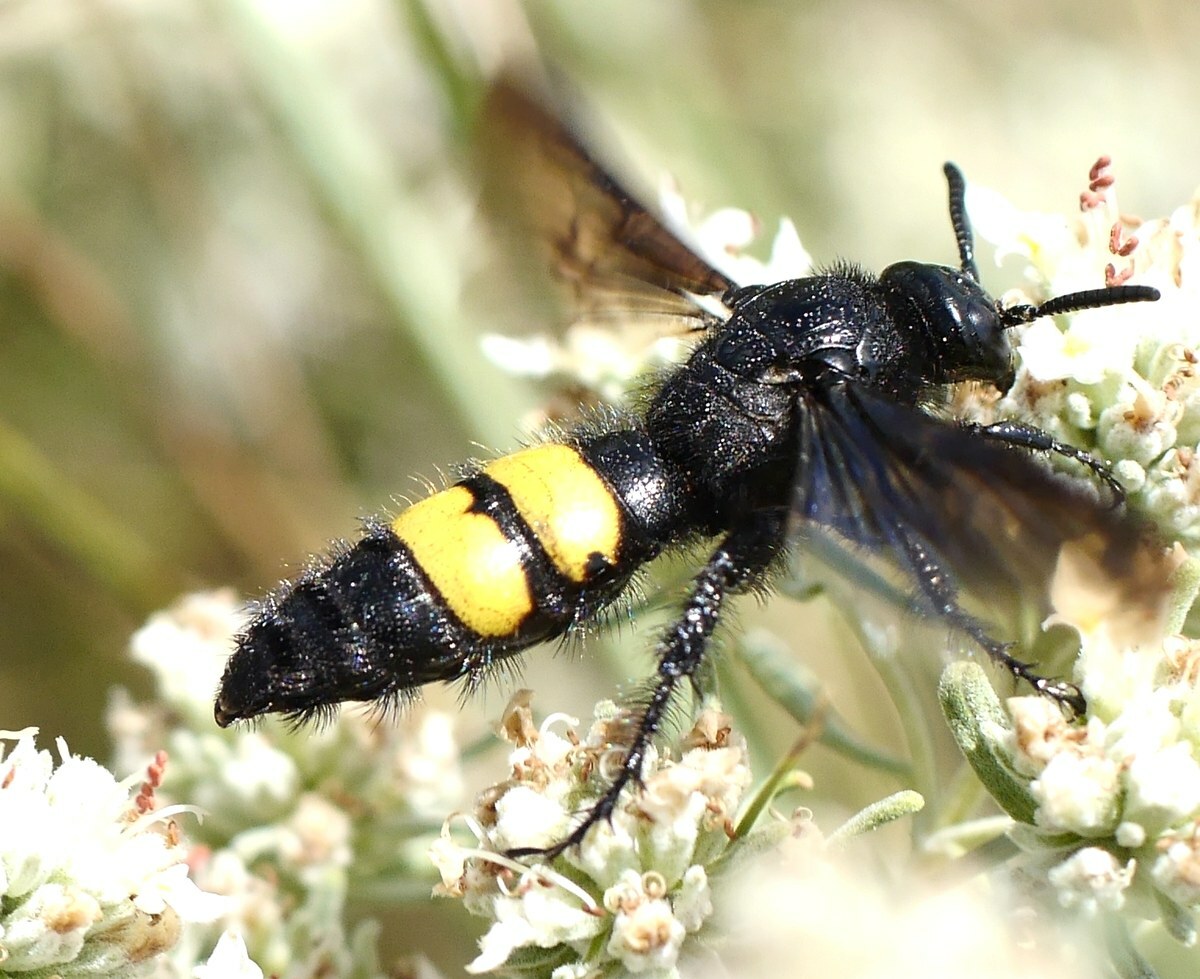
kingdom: Animalia
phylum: Arthropoda
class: Insecta
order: Hymenoptera
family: Scoliidae
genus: Scolia
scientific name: Scolia hirta
